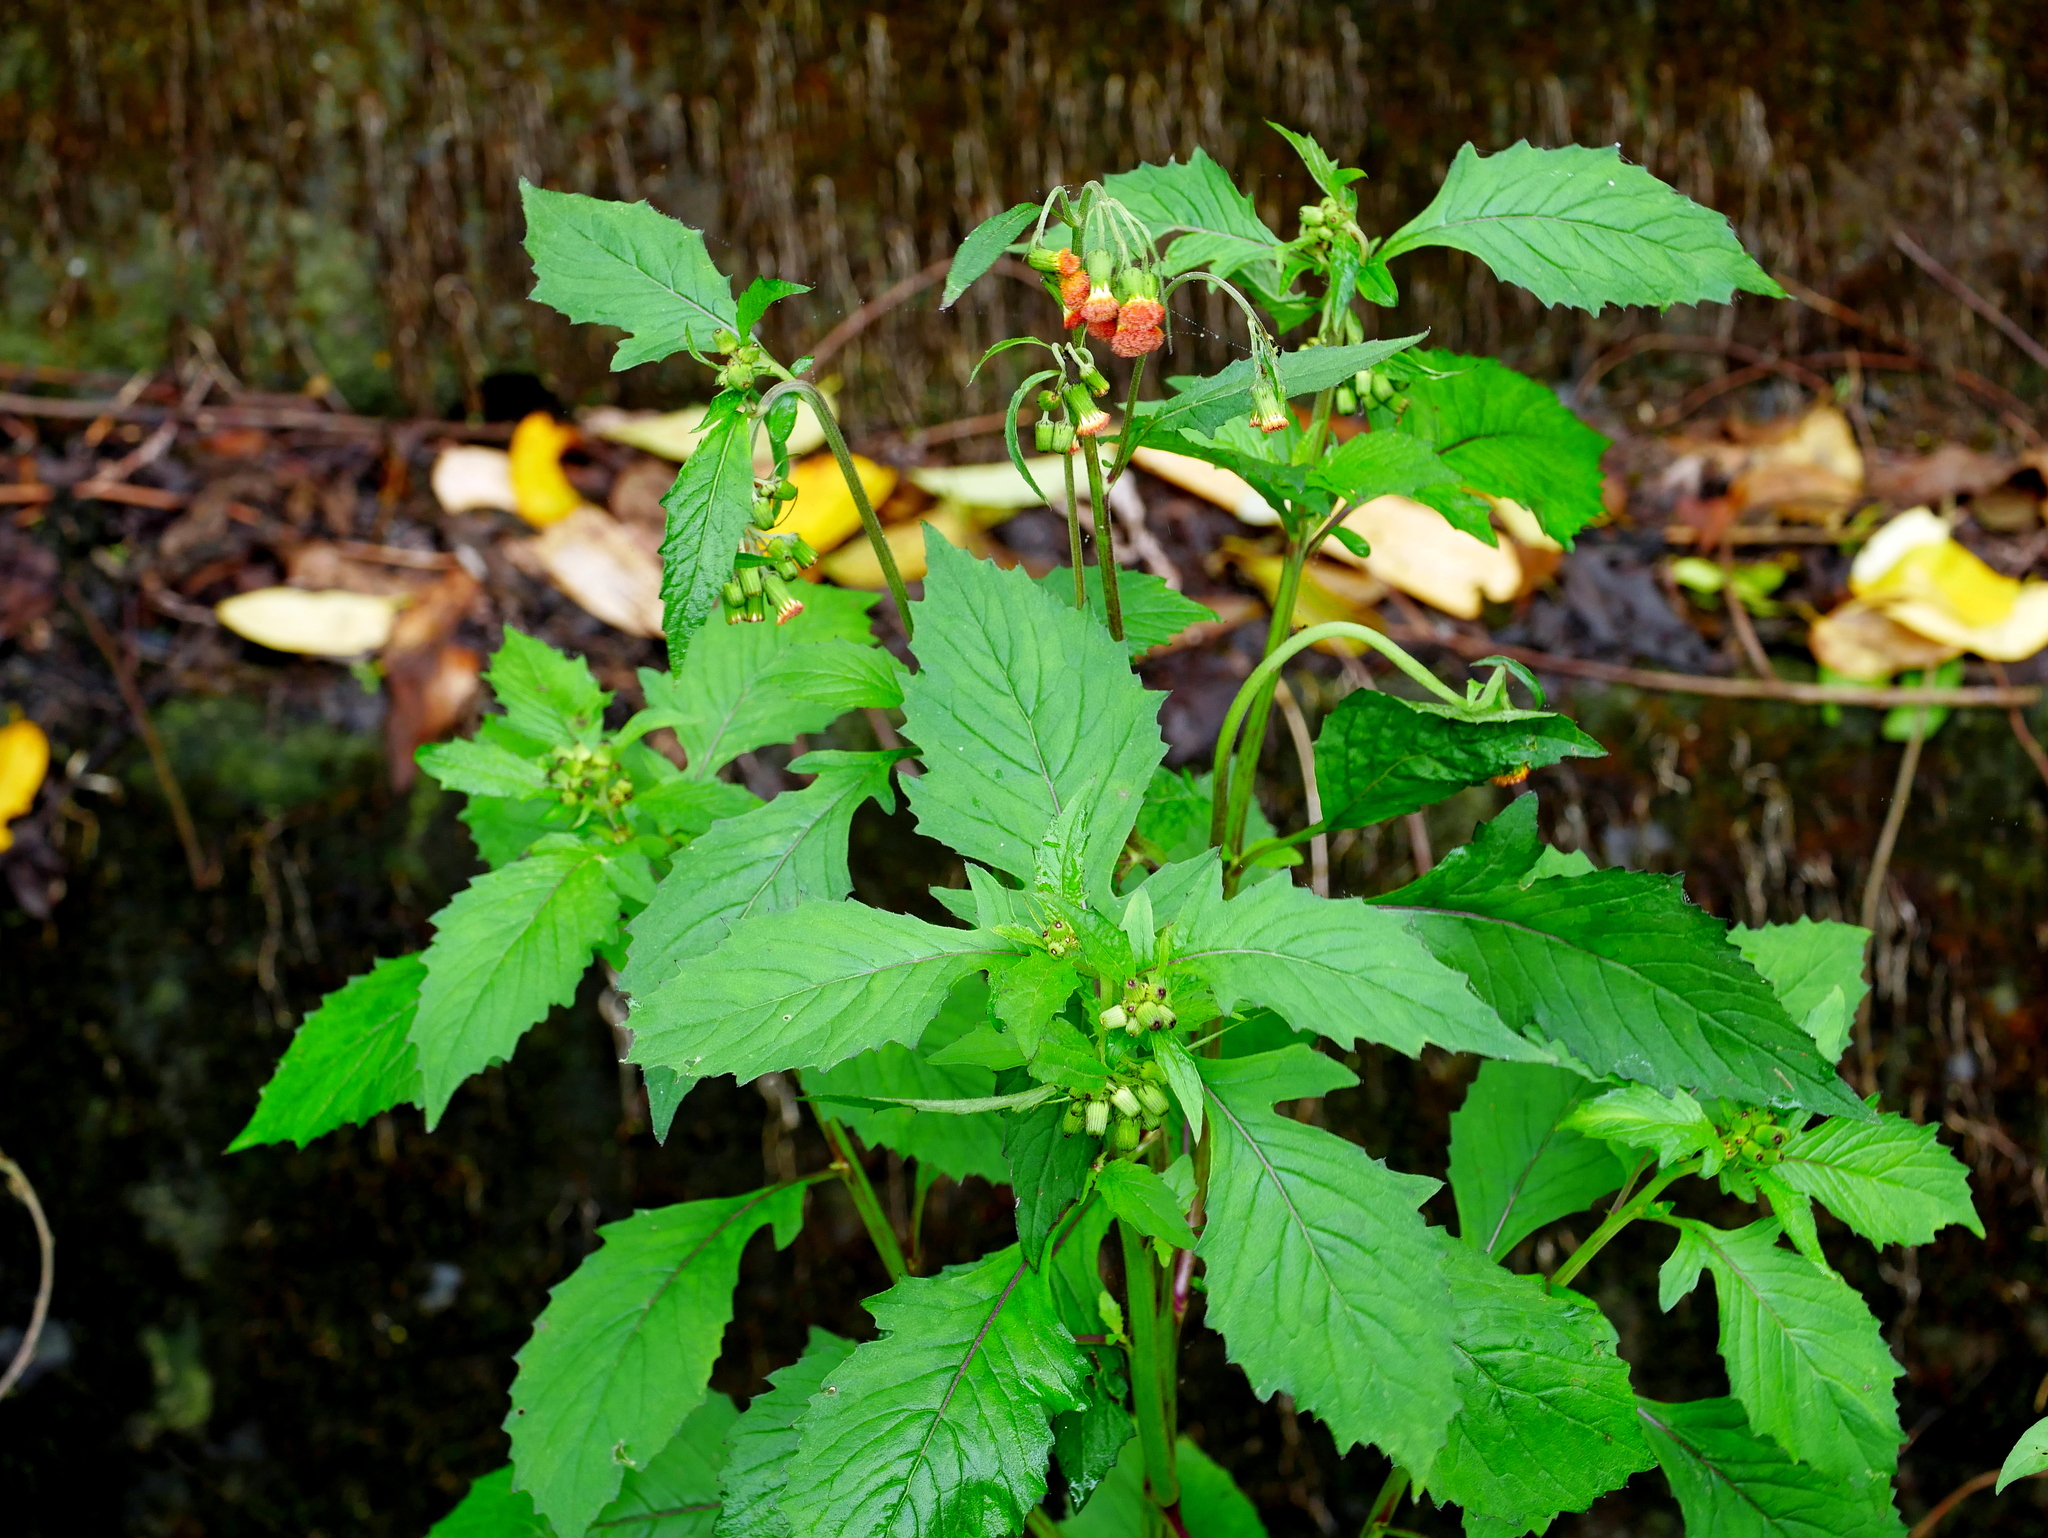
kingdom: Plantae
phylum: Tracheophyta
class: Magnoliopsida
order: Asterales
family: Asteraceae
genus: Crassocephalum
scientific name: Crassocephalum crepidioides
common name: Redflower ragleaf
